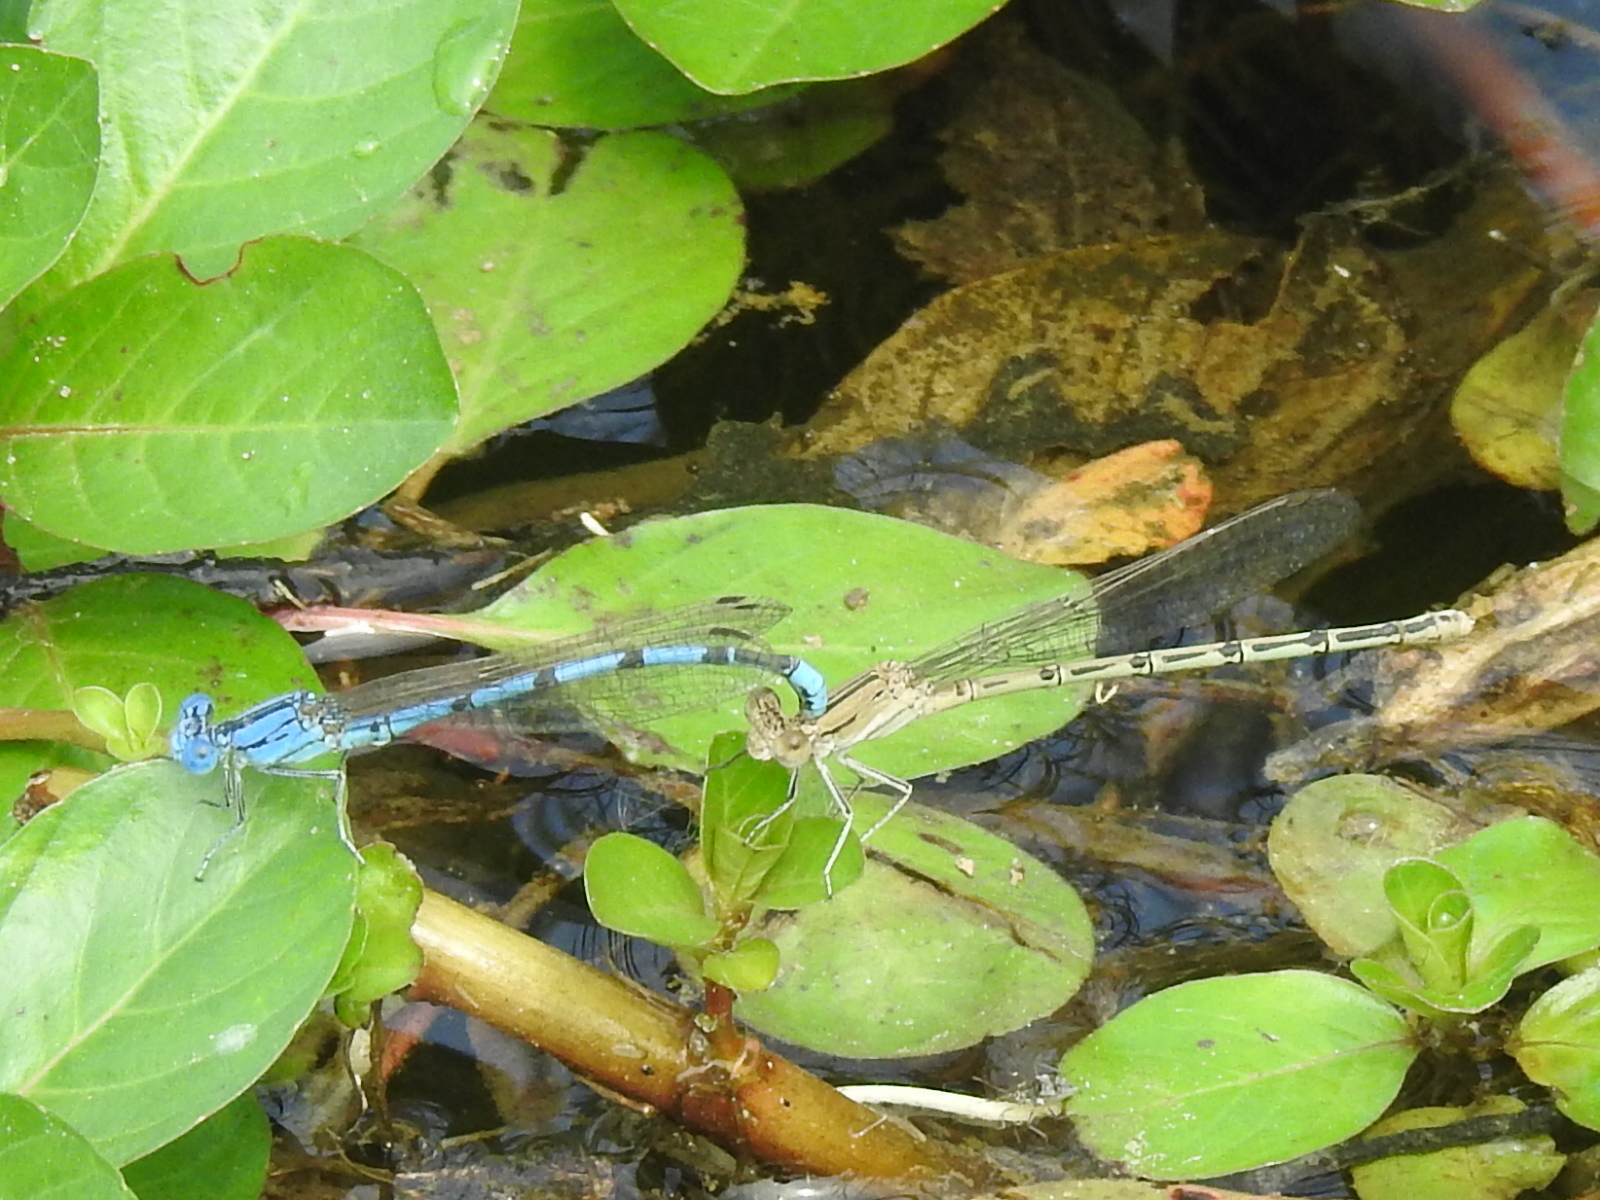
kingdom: Animalia
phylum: Arthropoda
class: Insecta
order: Odonata
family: Coenagrionidae
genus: Argia
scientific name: Argia nahuana
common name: Aztec dancer
